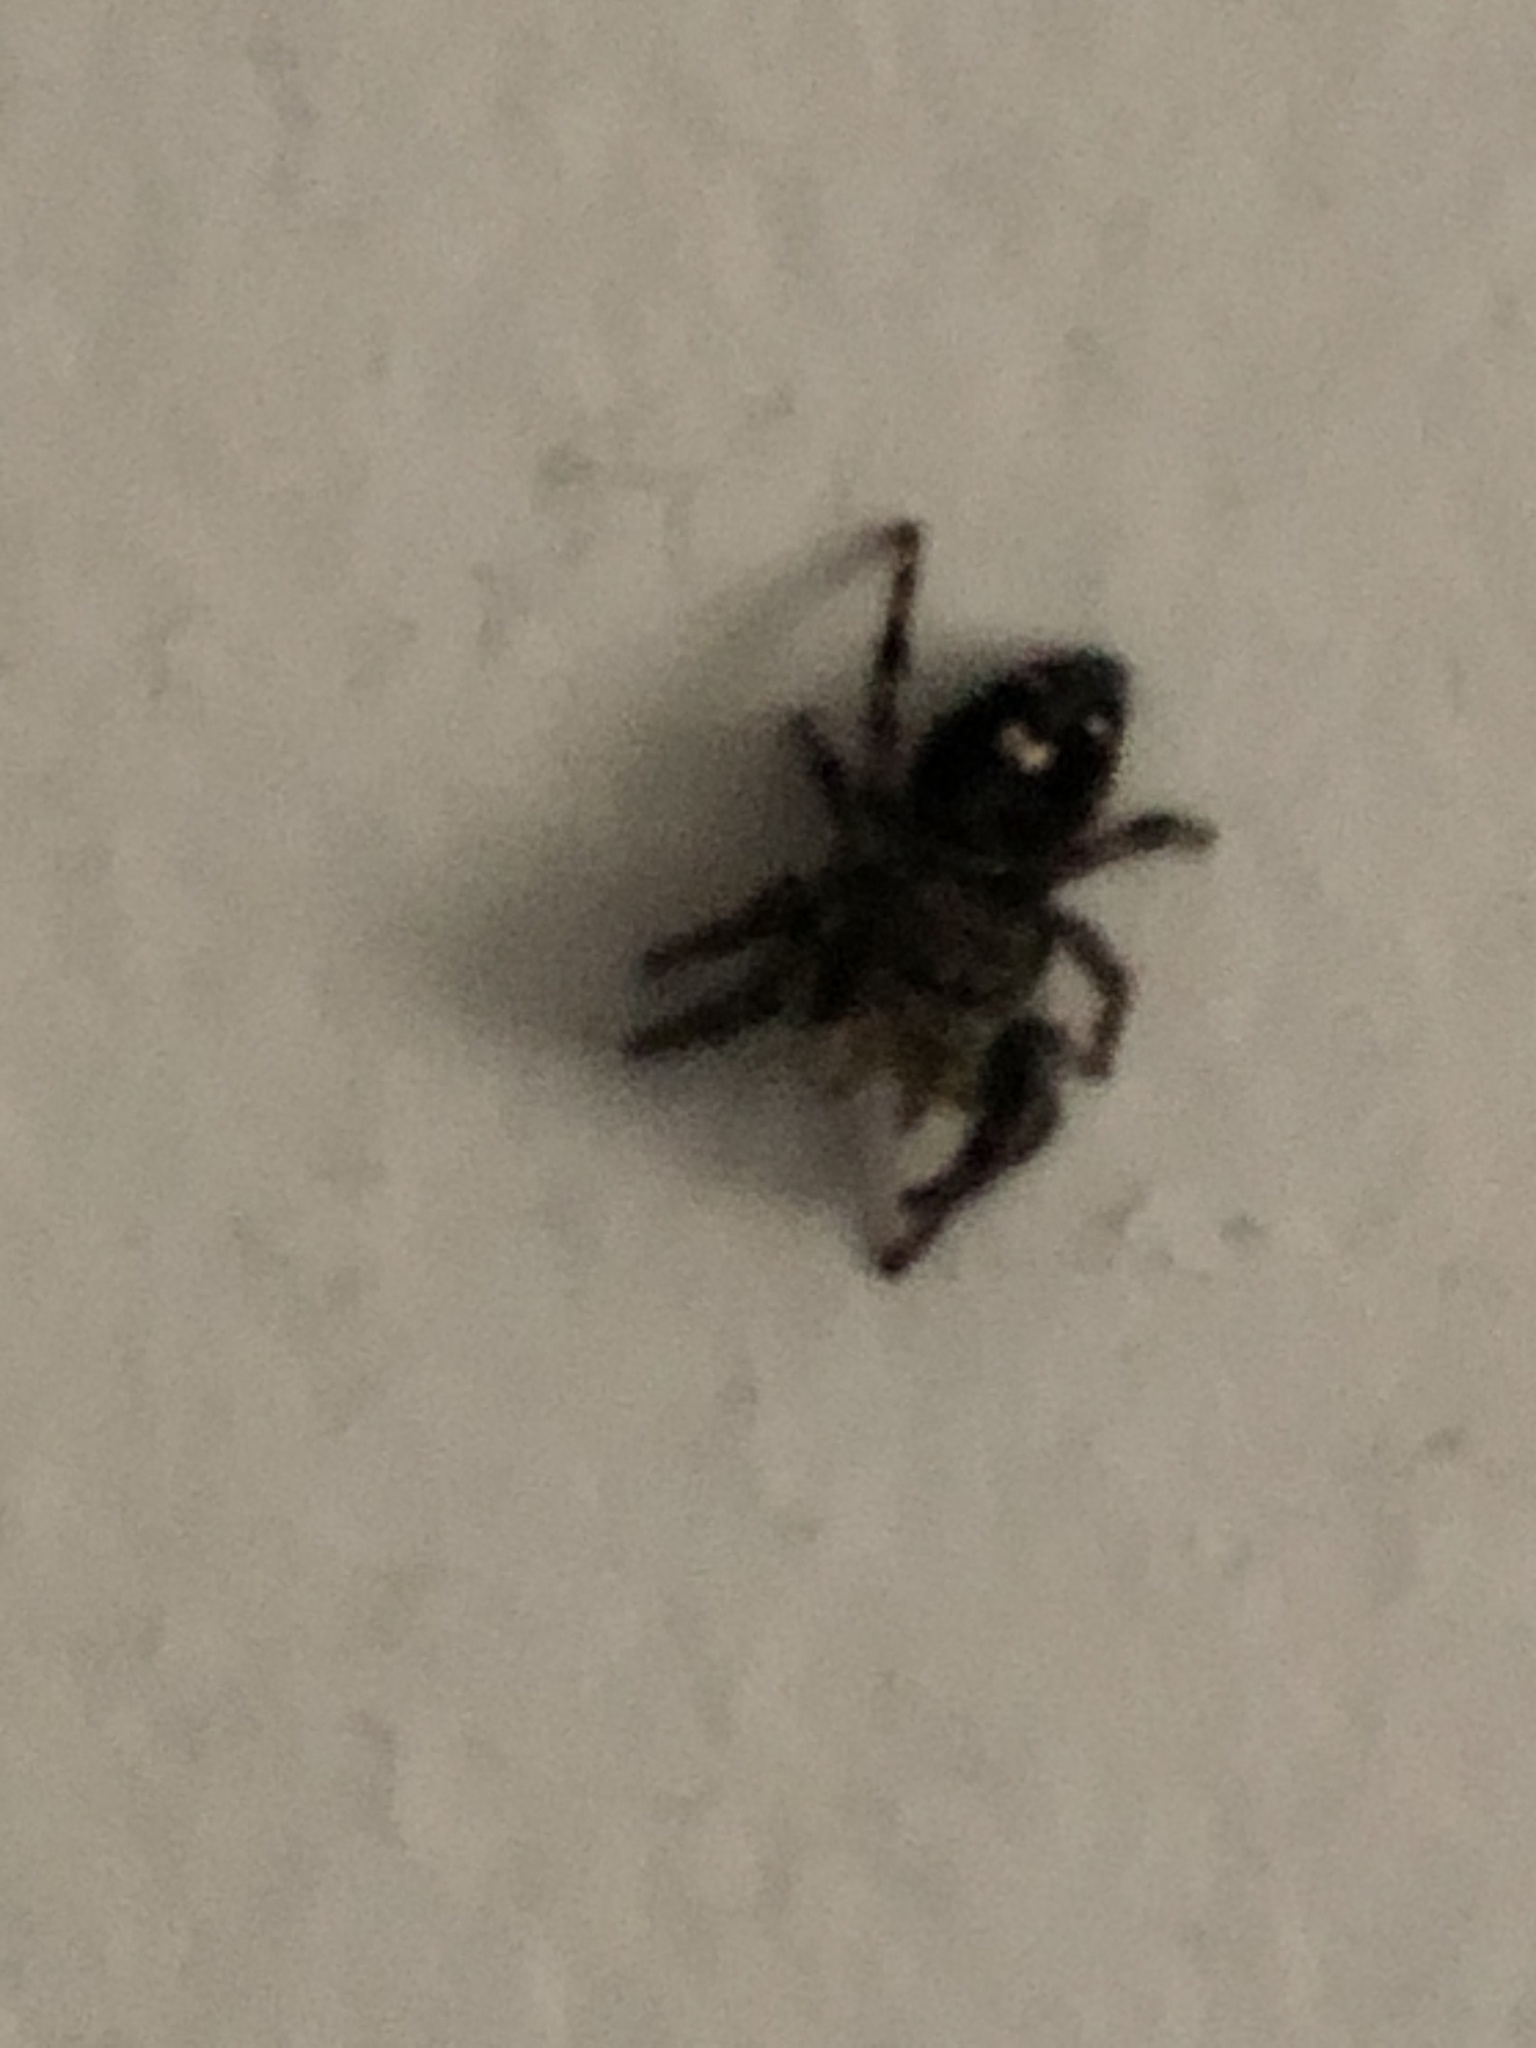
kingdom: Animalia
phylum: Arthropoda
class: Arachnida
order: Araneae
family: Salticidae
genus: Phidippus
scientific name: Phidippus audax
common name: Bold jumper
